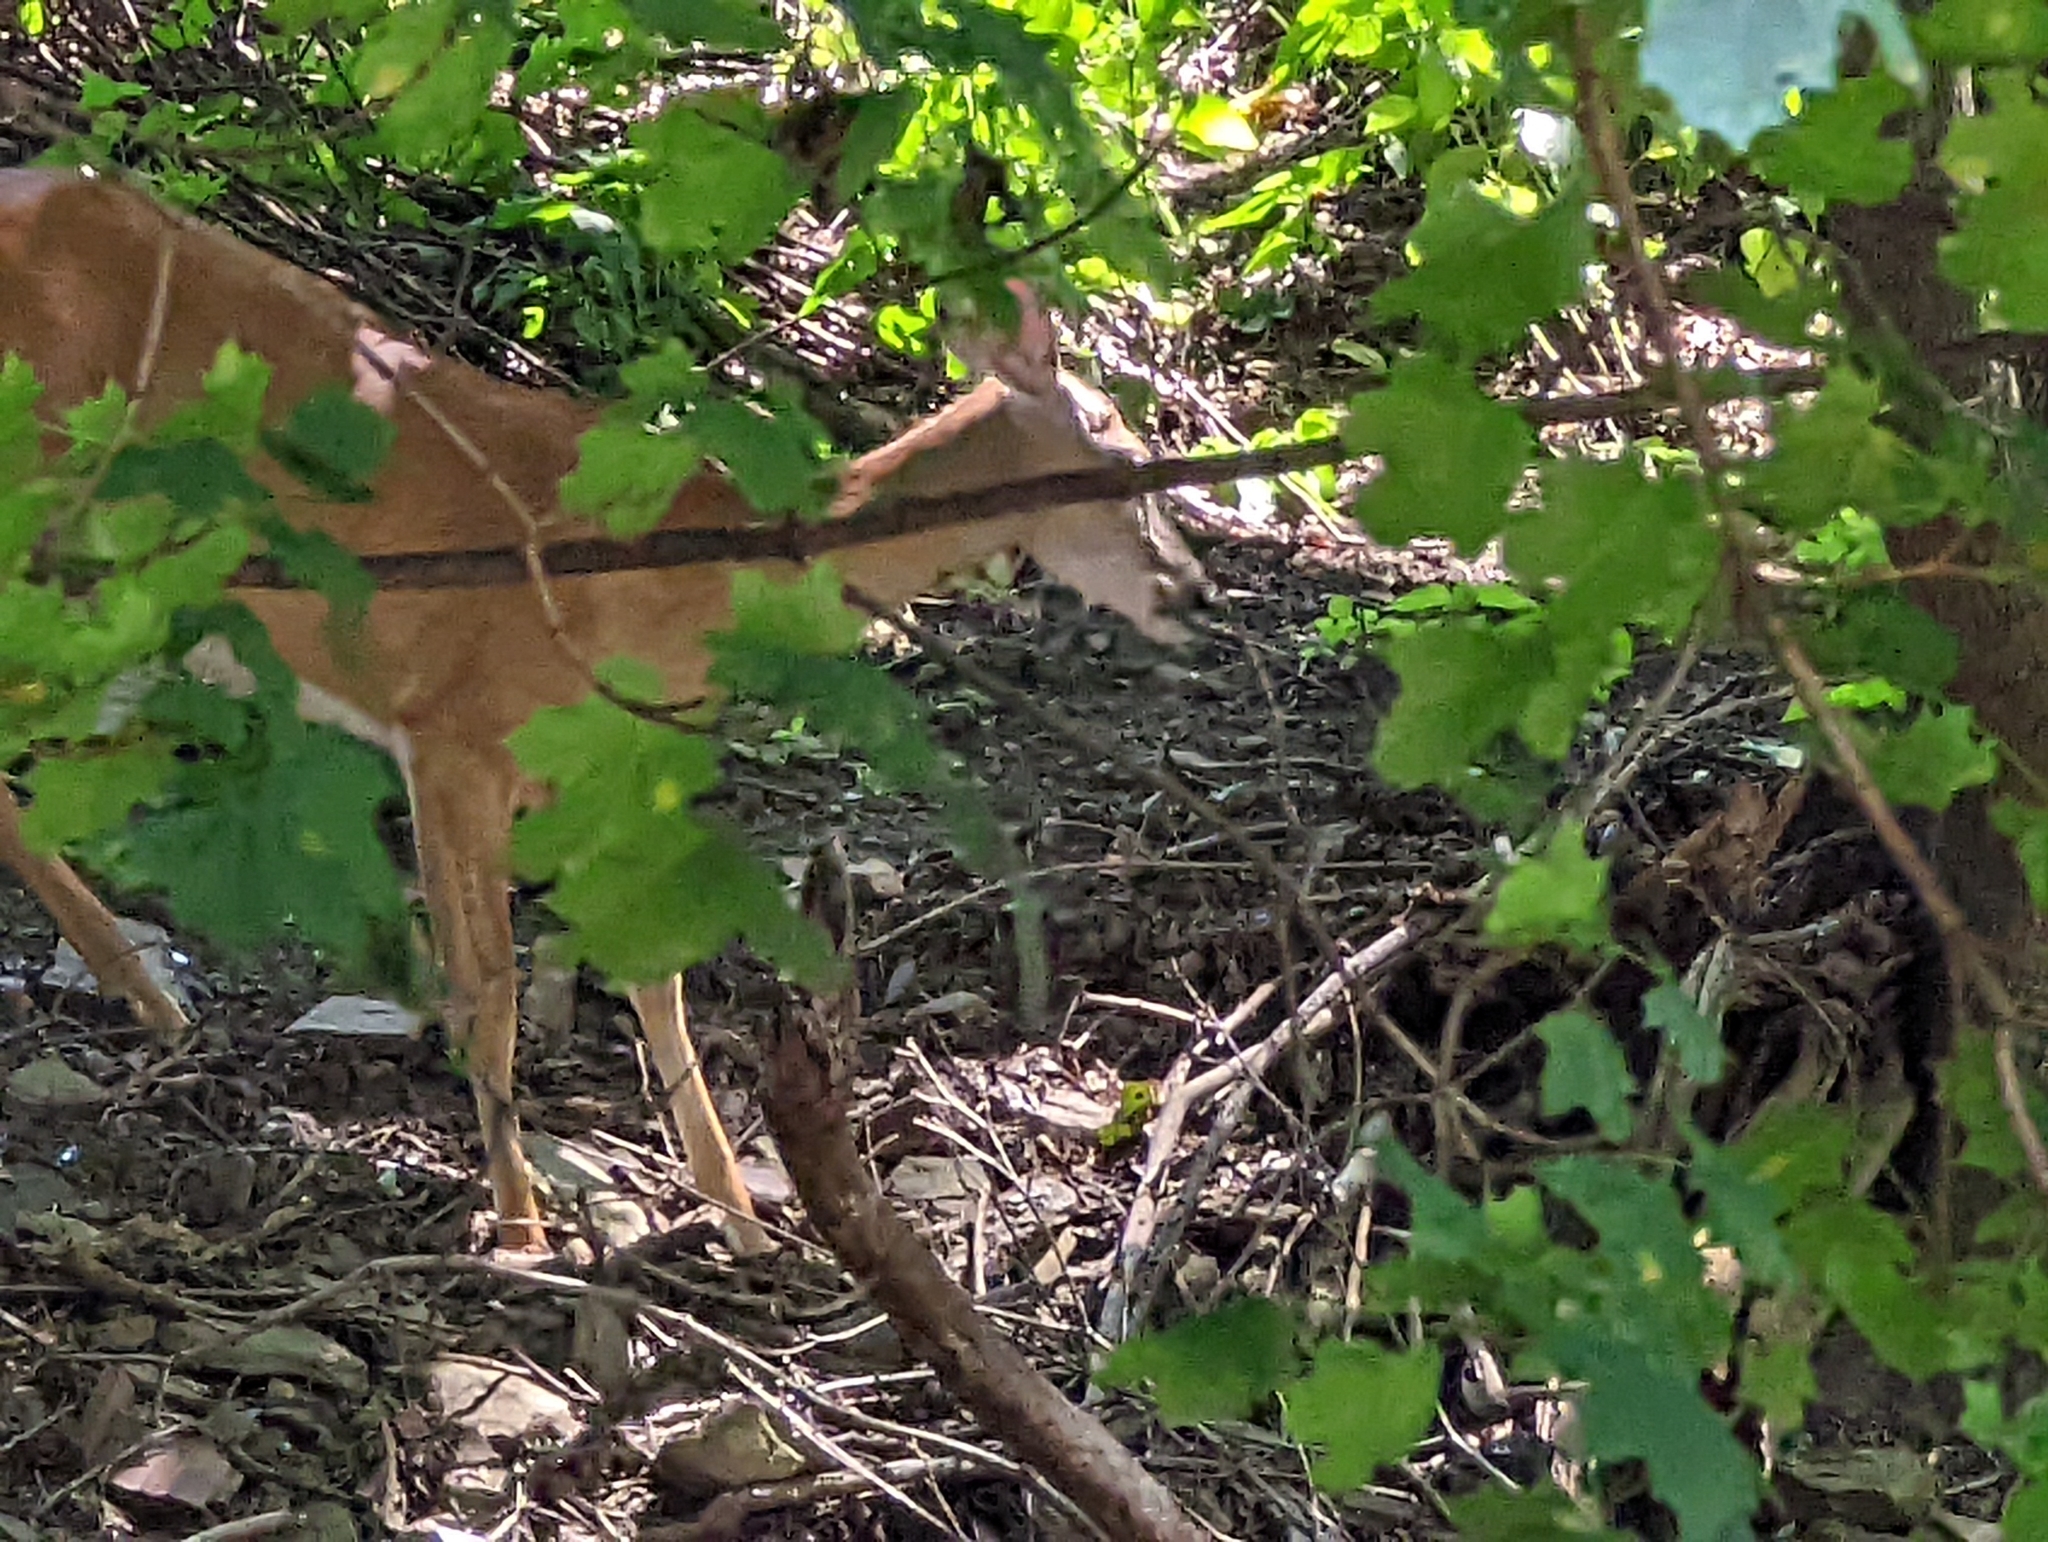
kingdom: Animalia
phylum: Chordata
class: Mammalia
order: Artiodactyla
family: Cervidae
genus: Odocoileus
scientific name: Odocoileus virginianus
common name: White-tailed deer
